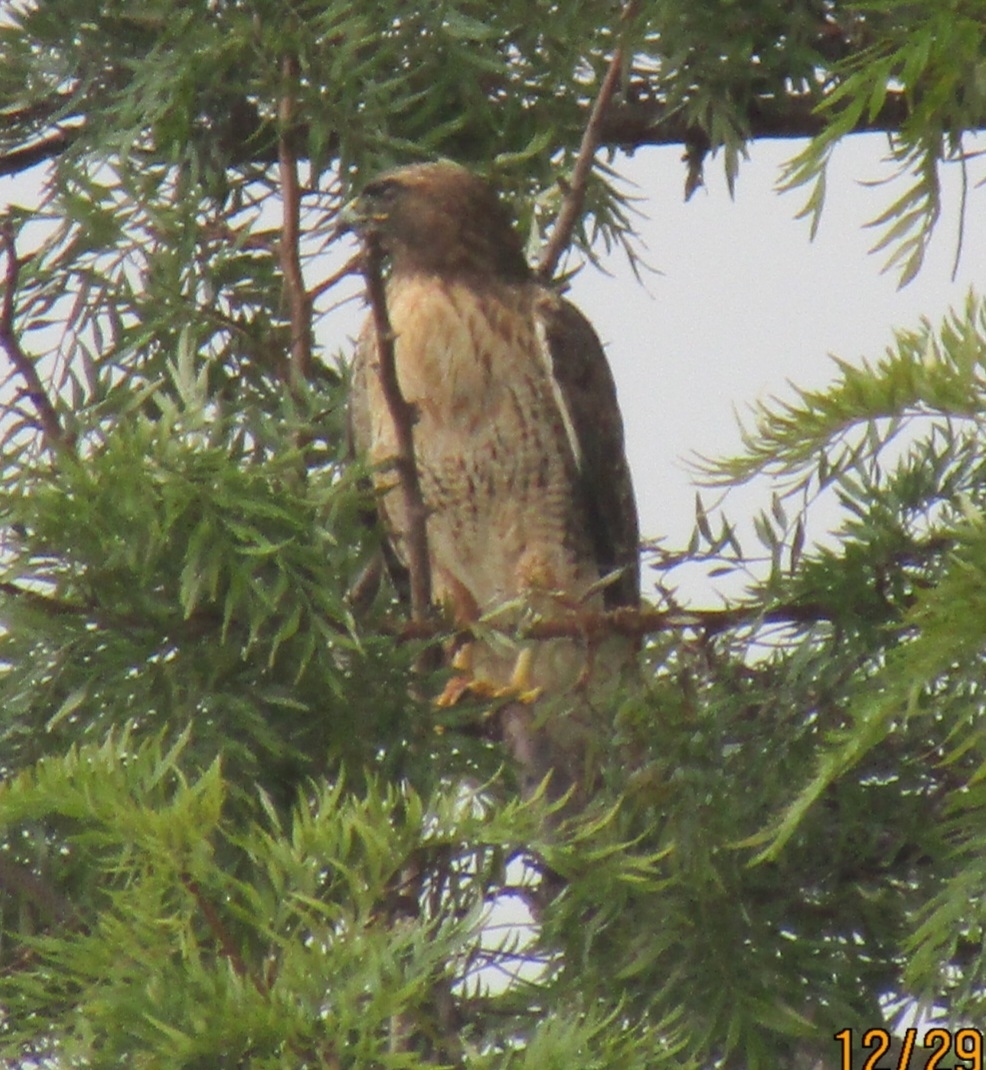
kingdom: Animalia
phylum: Chordata
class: Aves
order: Accipitriformes
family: Accipitridae
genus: Buteo
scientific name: Buteo jamaicensis
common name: Red-tailed hawk
